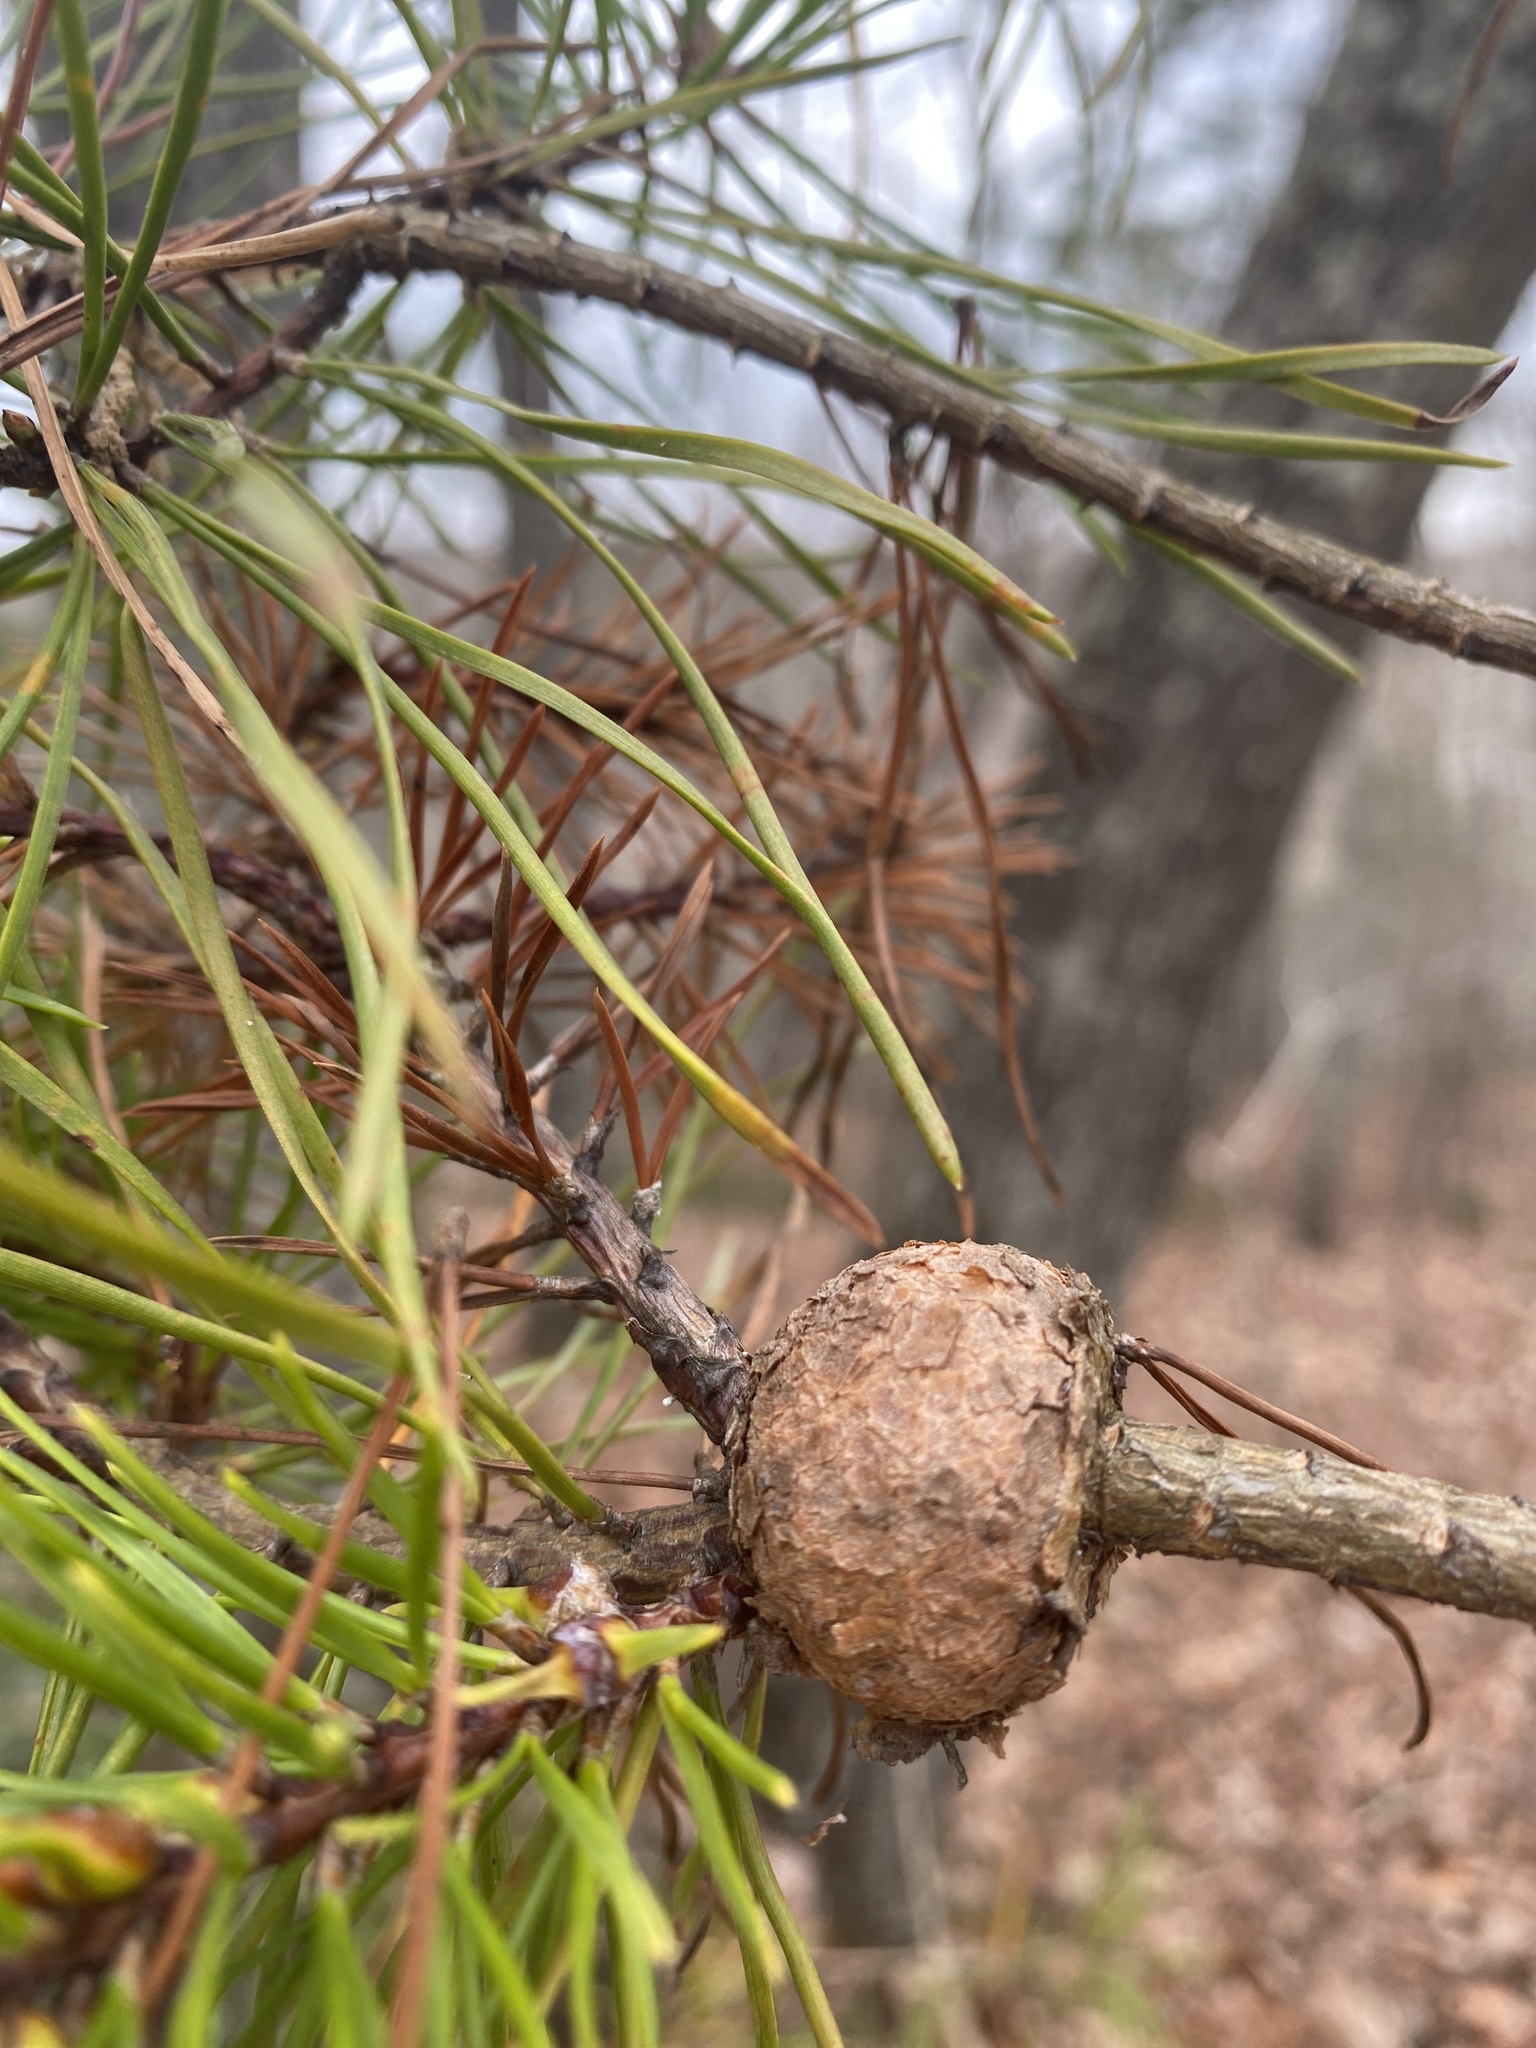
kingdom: Fungi
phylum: Basidiomycota
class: Pucciniomycetes
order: Pucciniales
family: Cronartiaceae
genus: Cronartium
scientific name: Cronartium quercuum
